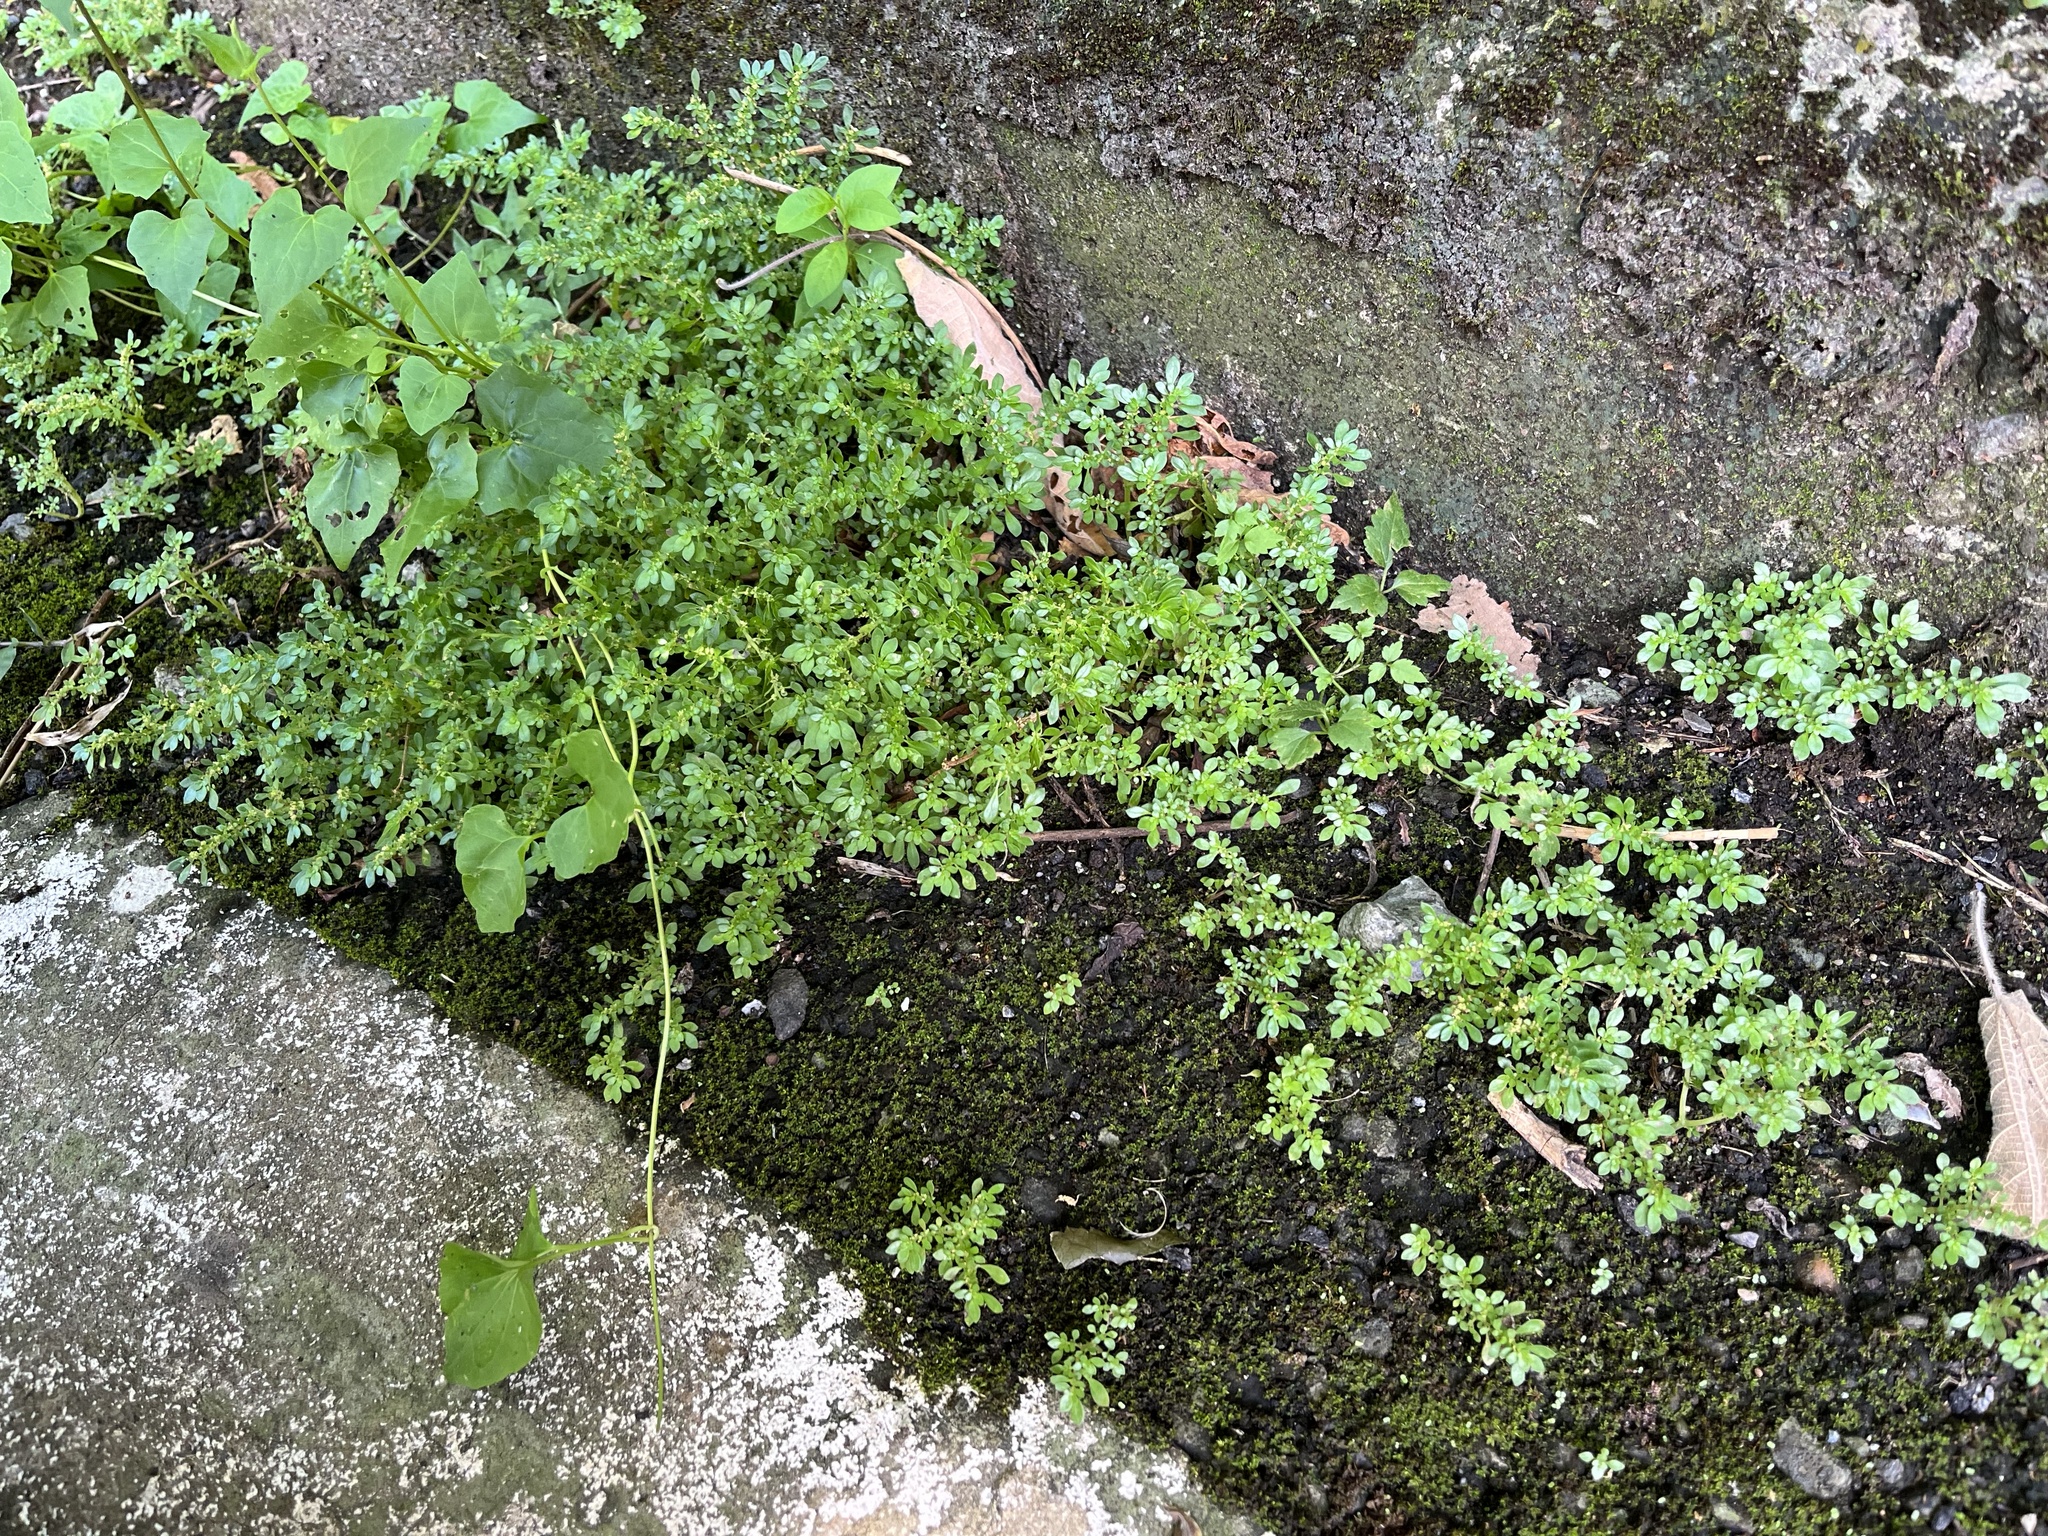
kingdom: Plantae
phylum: Tracheophyta
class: Magnoliopsida
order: Rosales
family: Urticaceae
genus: Pilea
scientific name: Pilea microphylla
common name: Artillery-plant
